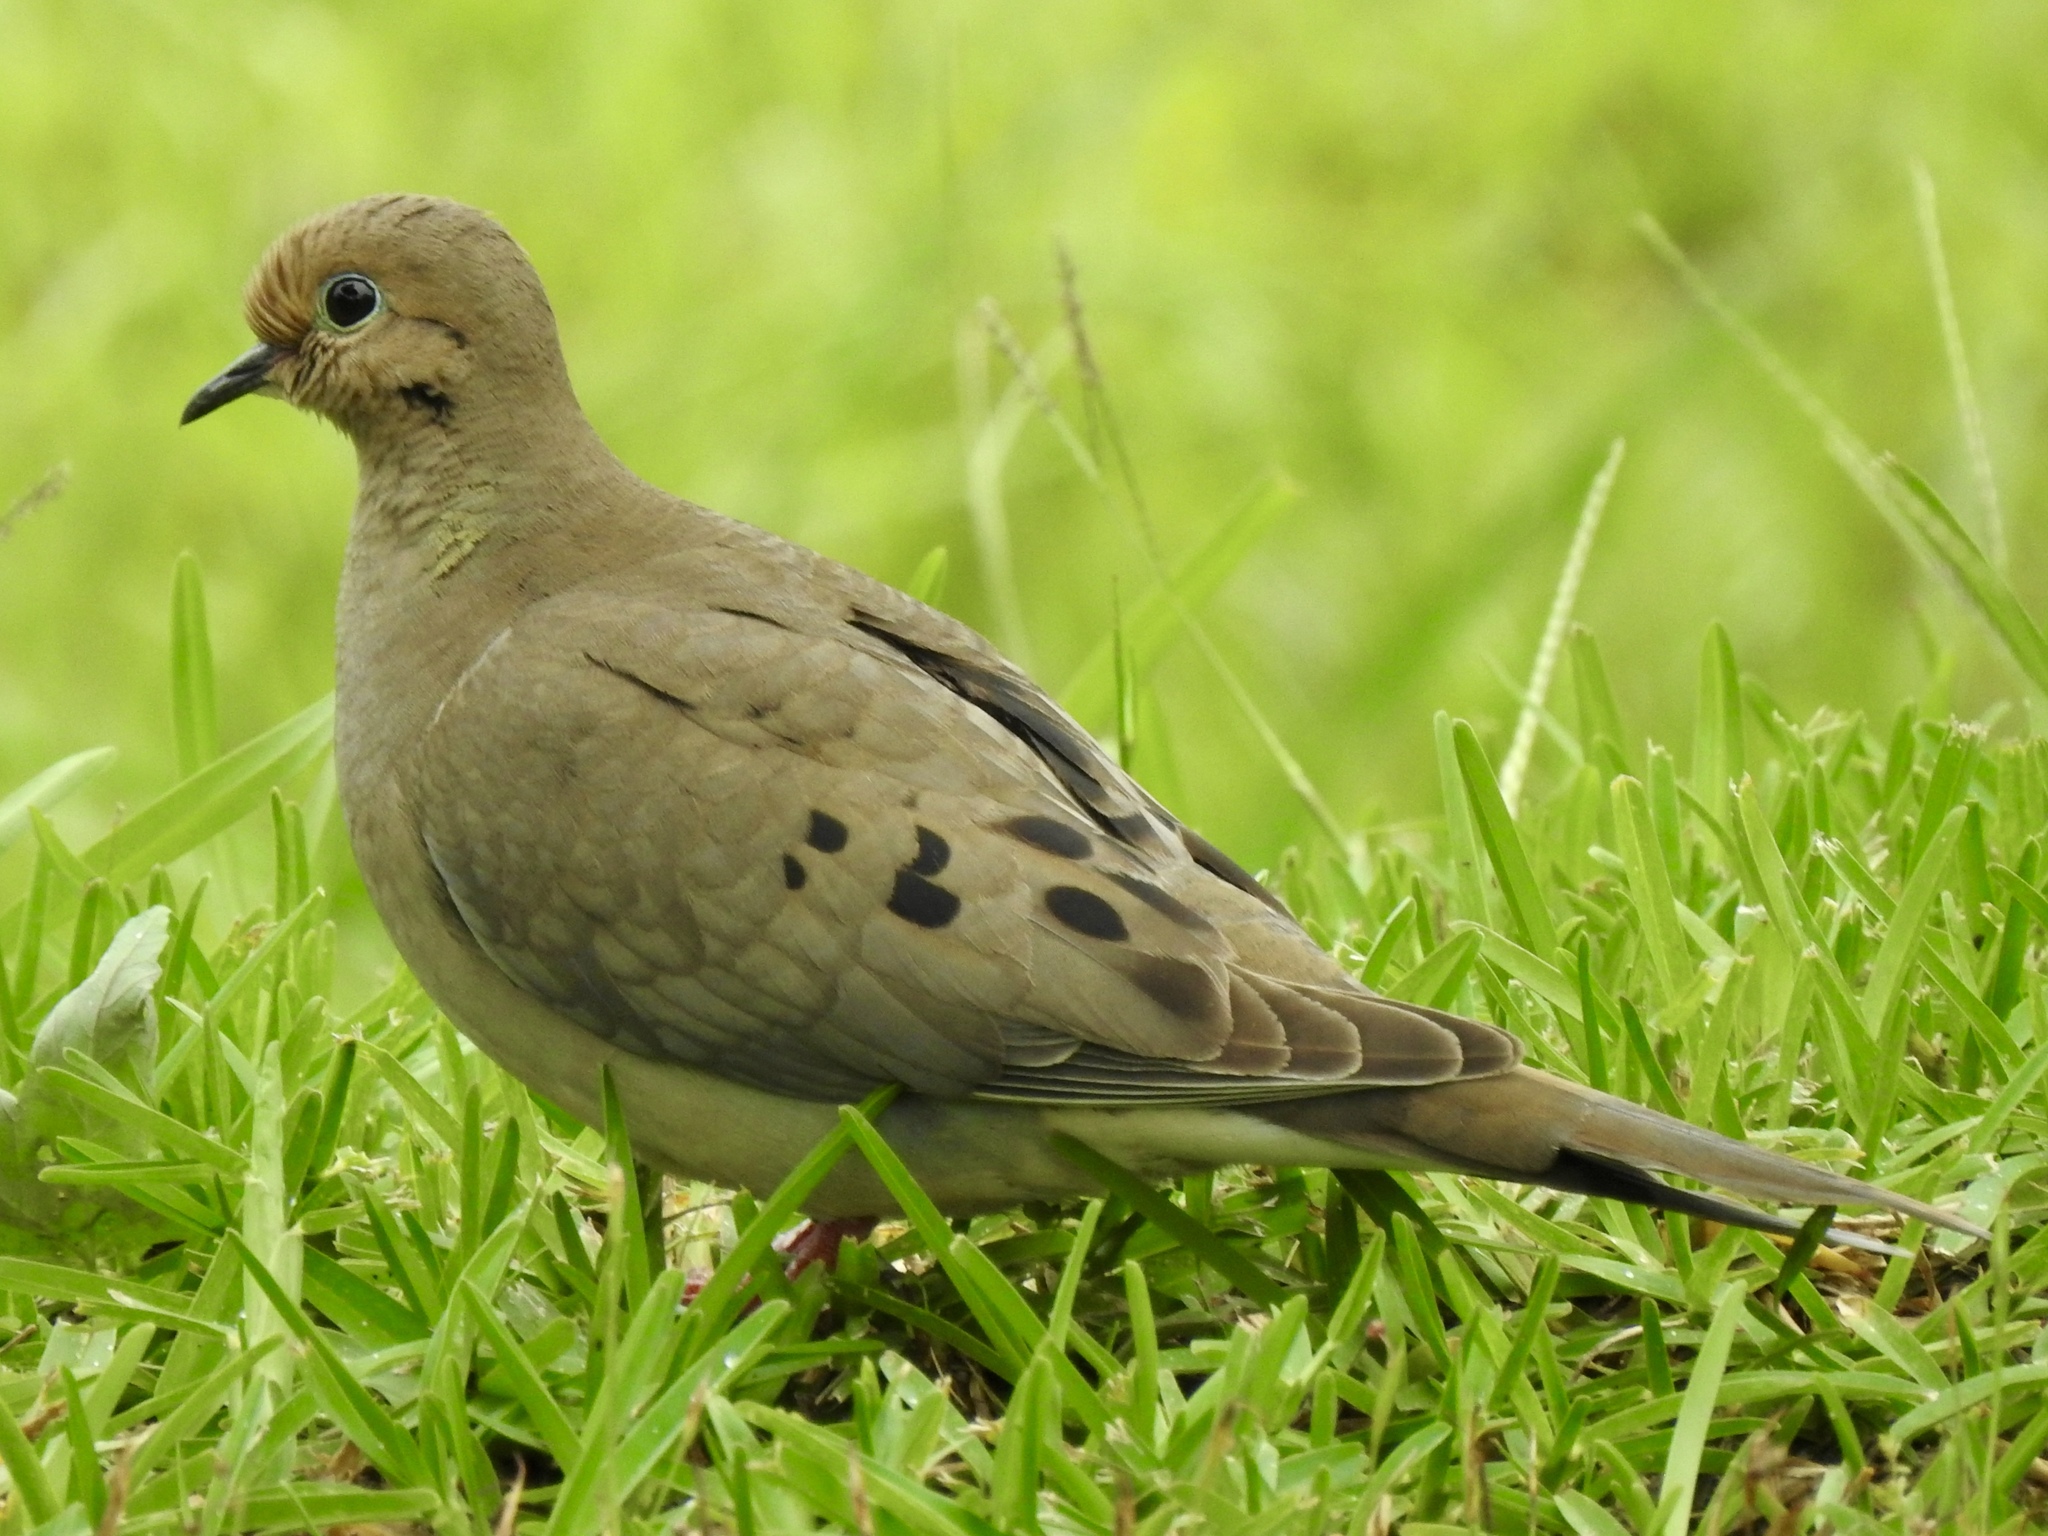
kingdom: Animalia
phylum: Chordata
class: Aves
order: Columbiformes
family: Columbidae
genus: Zenaida
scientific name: Zenaida macroura
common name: Mourning dove
